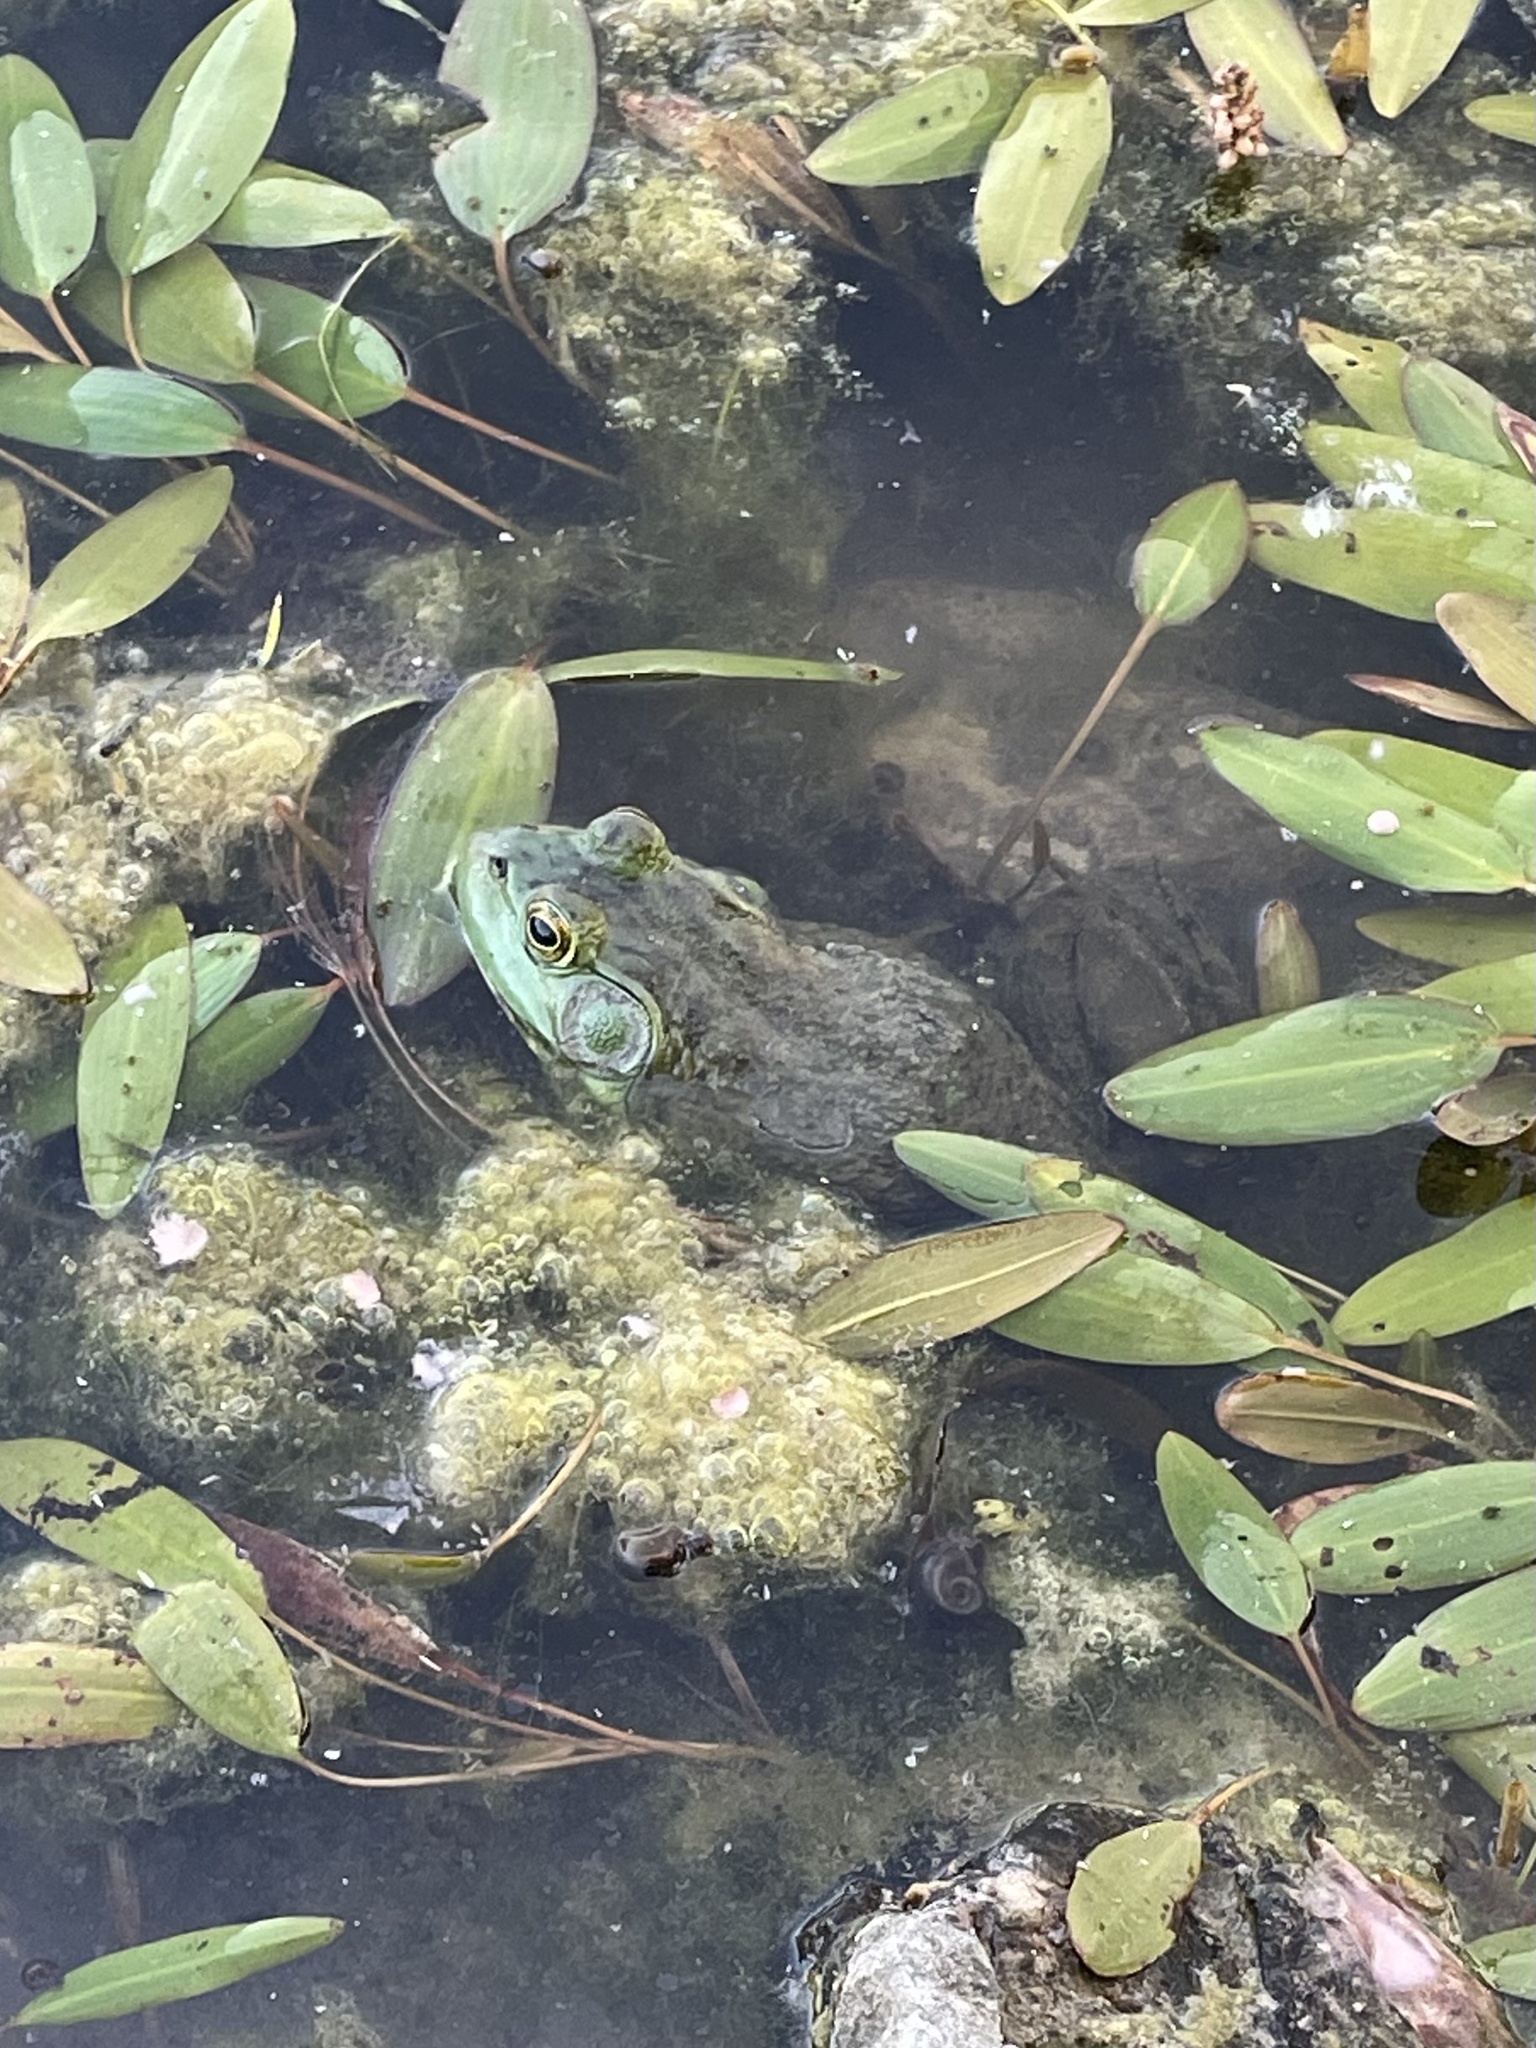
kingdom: Animalia
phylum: Chordata
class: Amphibia
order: Anura
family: Ranidae
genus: Lithobates
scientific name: Lithobates catesbeianus
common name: American bullfrog
